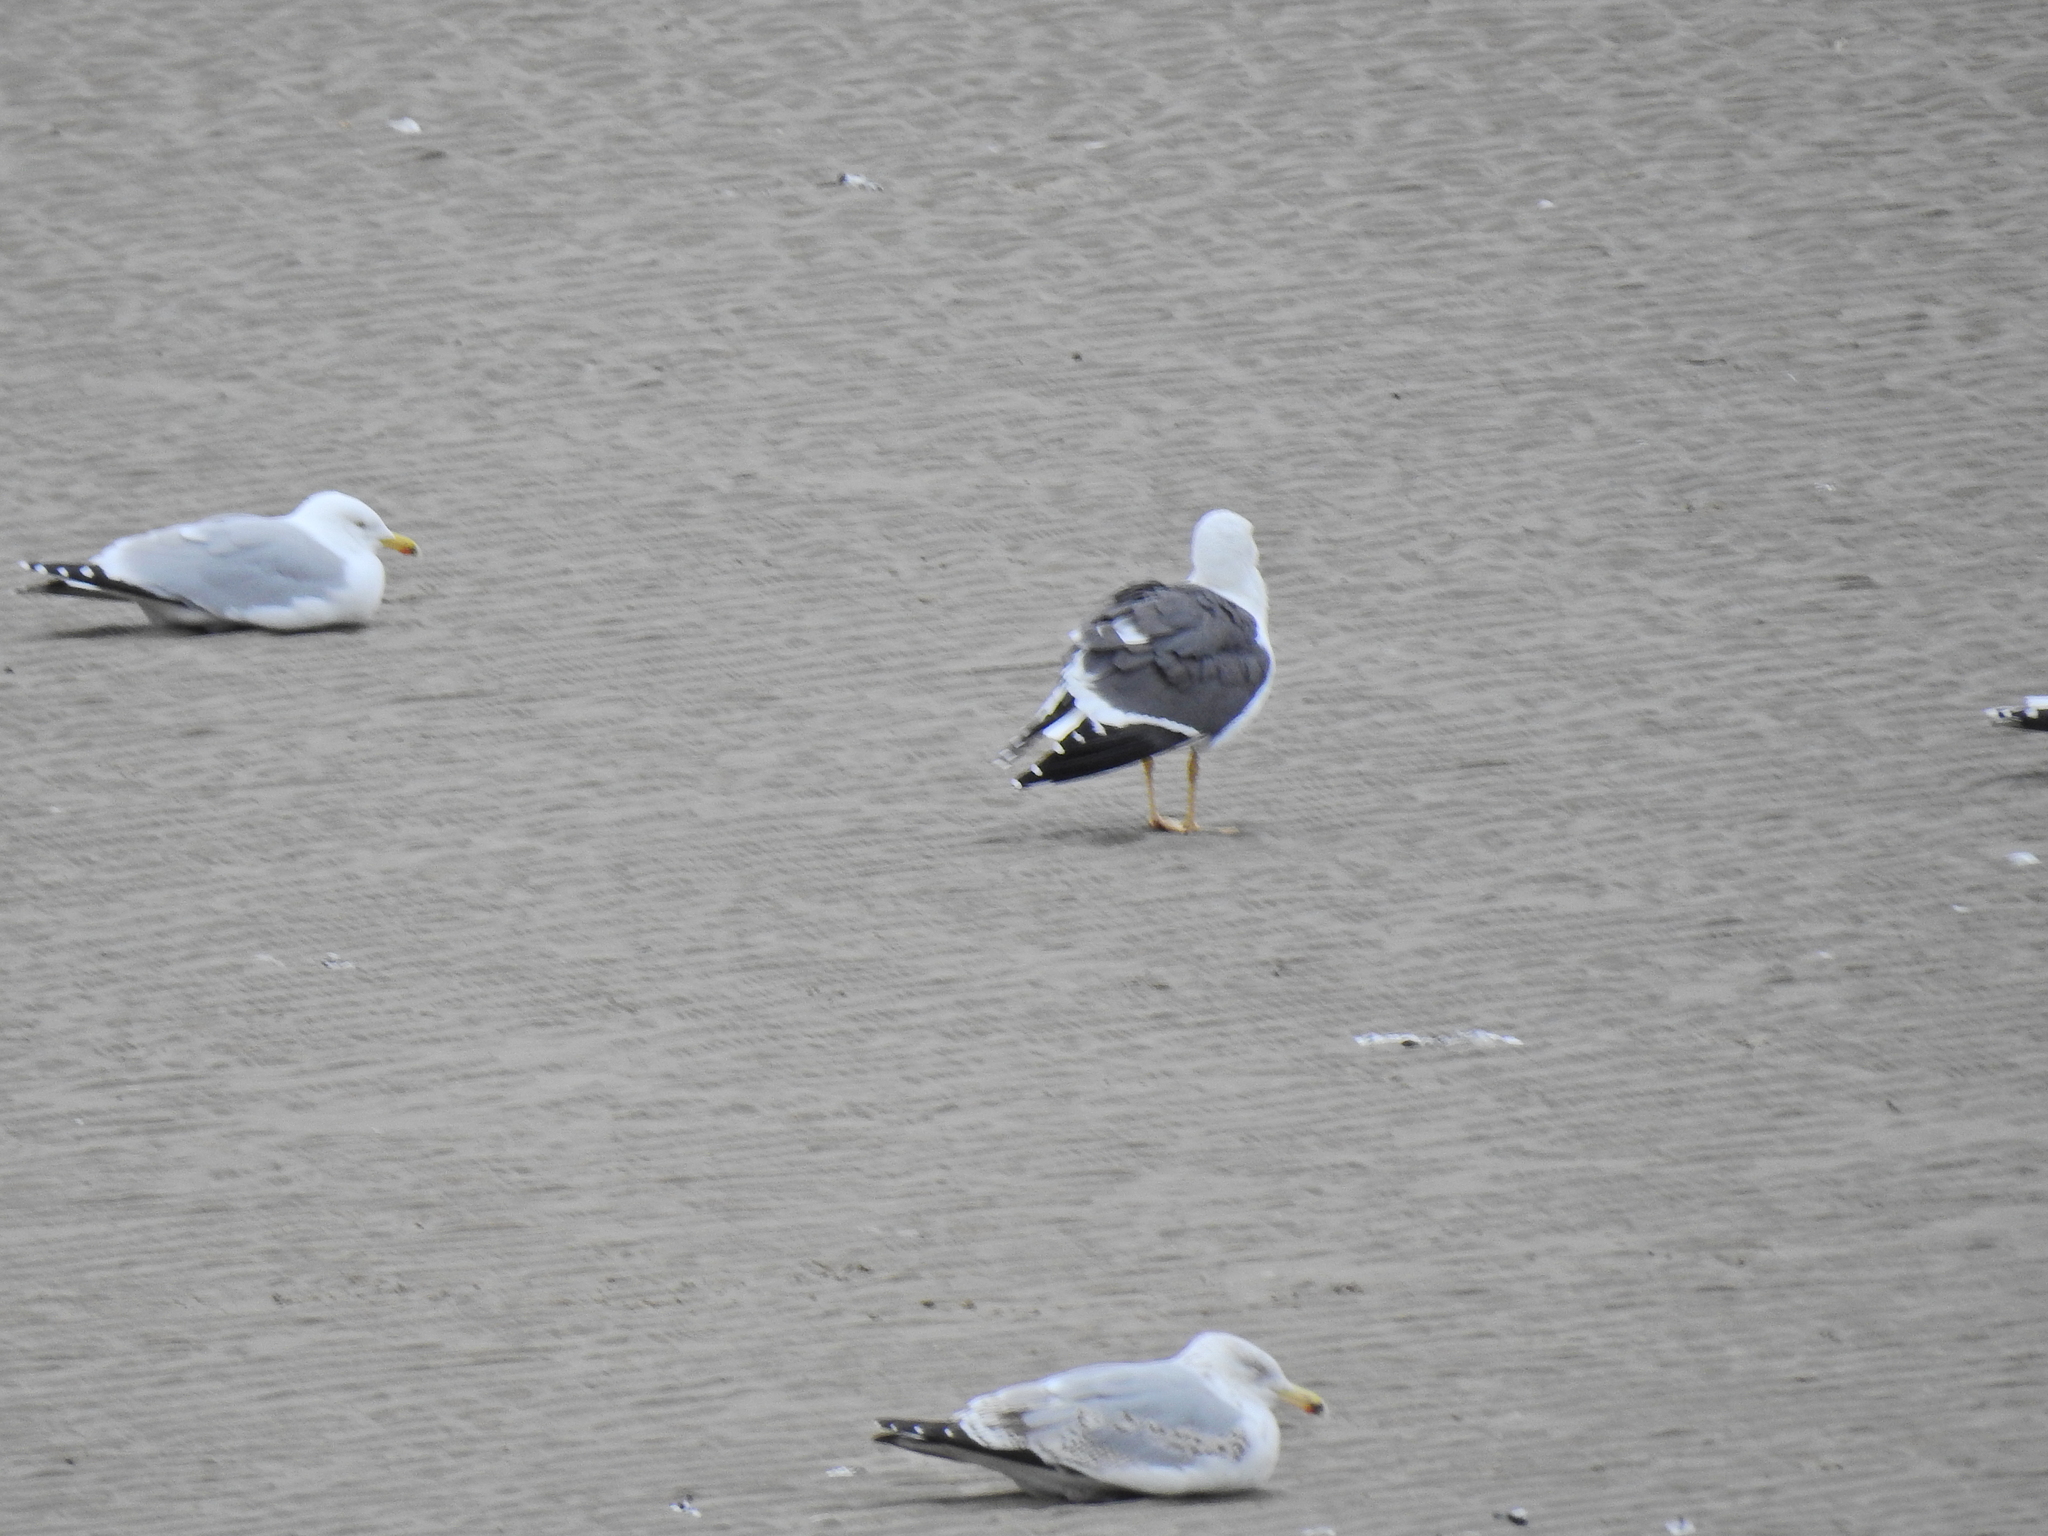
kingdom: Animalia
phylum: Chordata
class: Aves
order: Charadriiformes
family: Laridae
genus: Larus
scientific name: Larus fuscus
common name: Lesser black-backed gull
